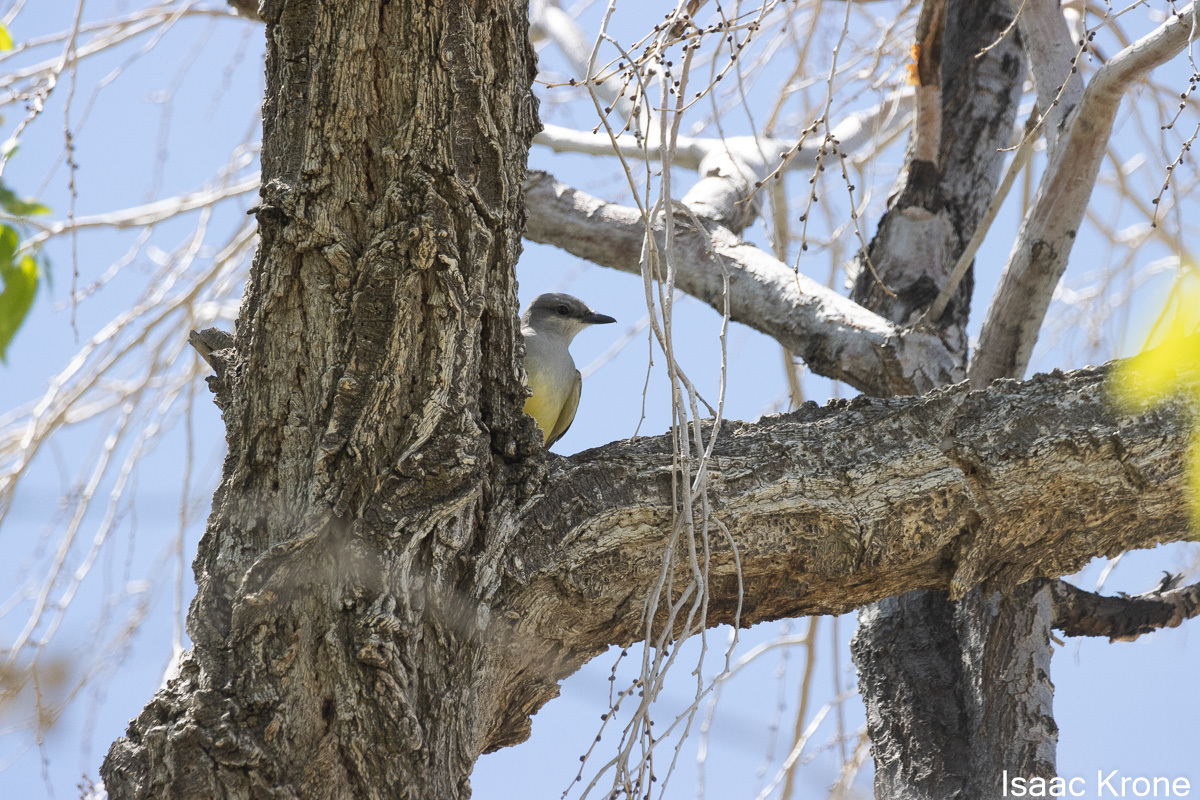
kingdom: Animalia
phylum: Chordata
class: Aves
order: Passeriformes
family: Tyrannidae
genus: Tyrannus
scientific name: Tyrannus verticalis
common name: Western kingbird
